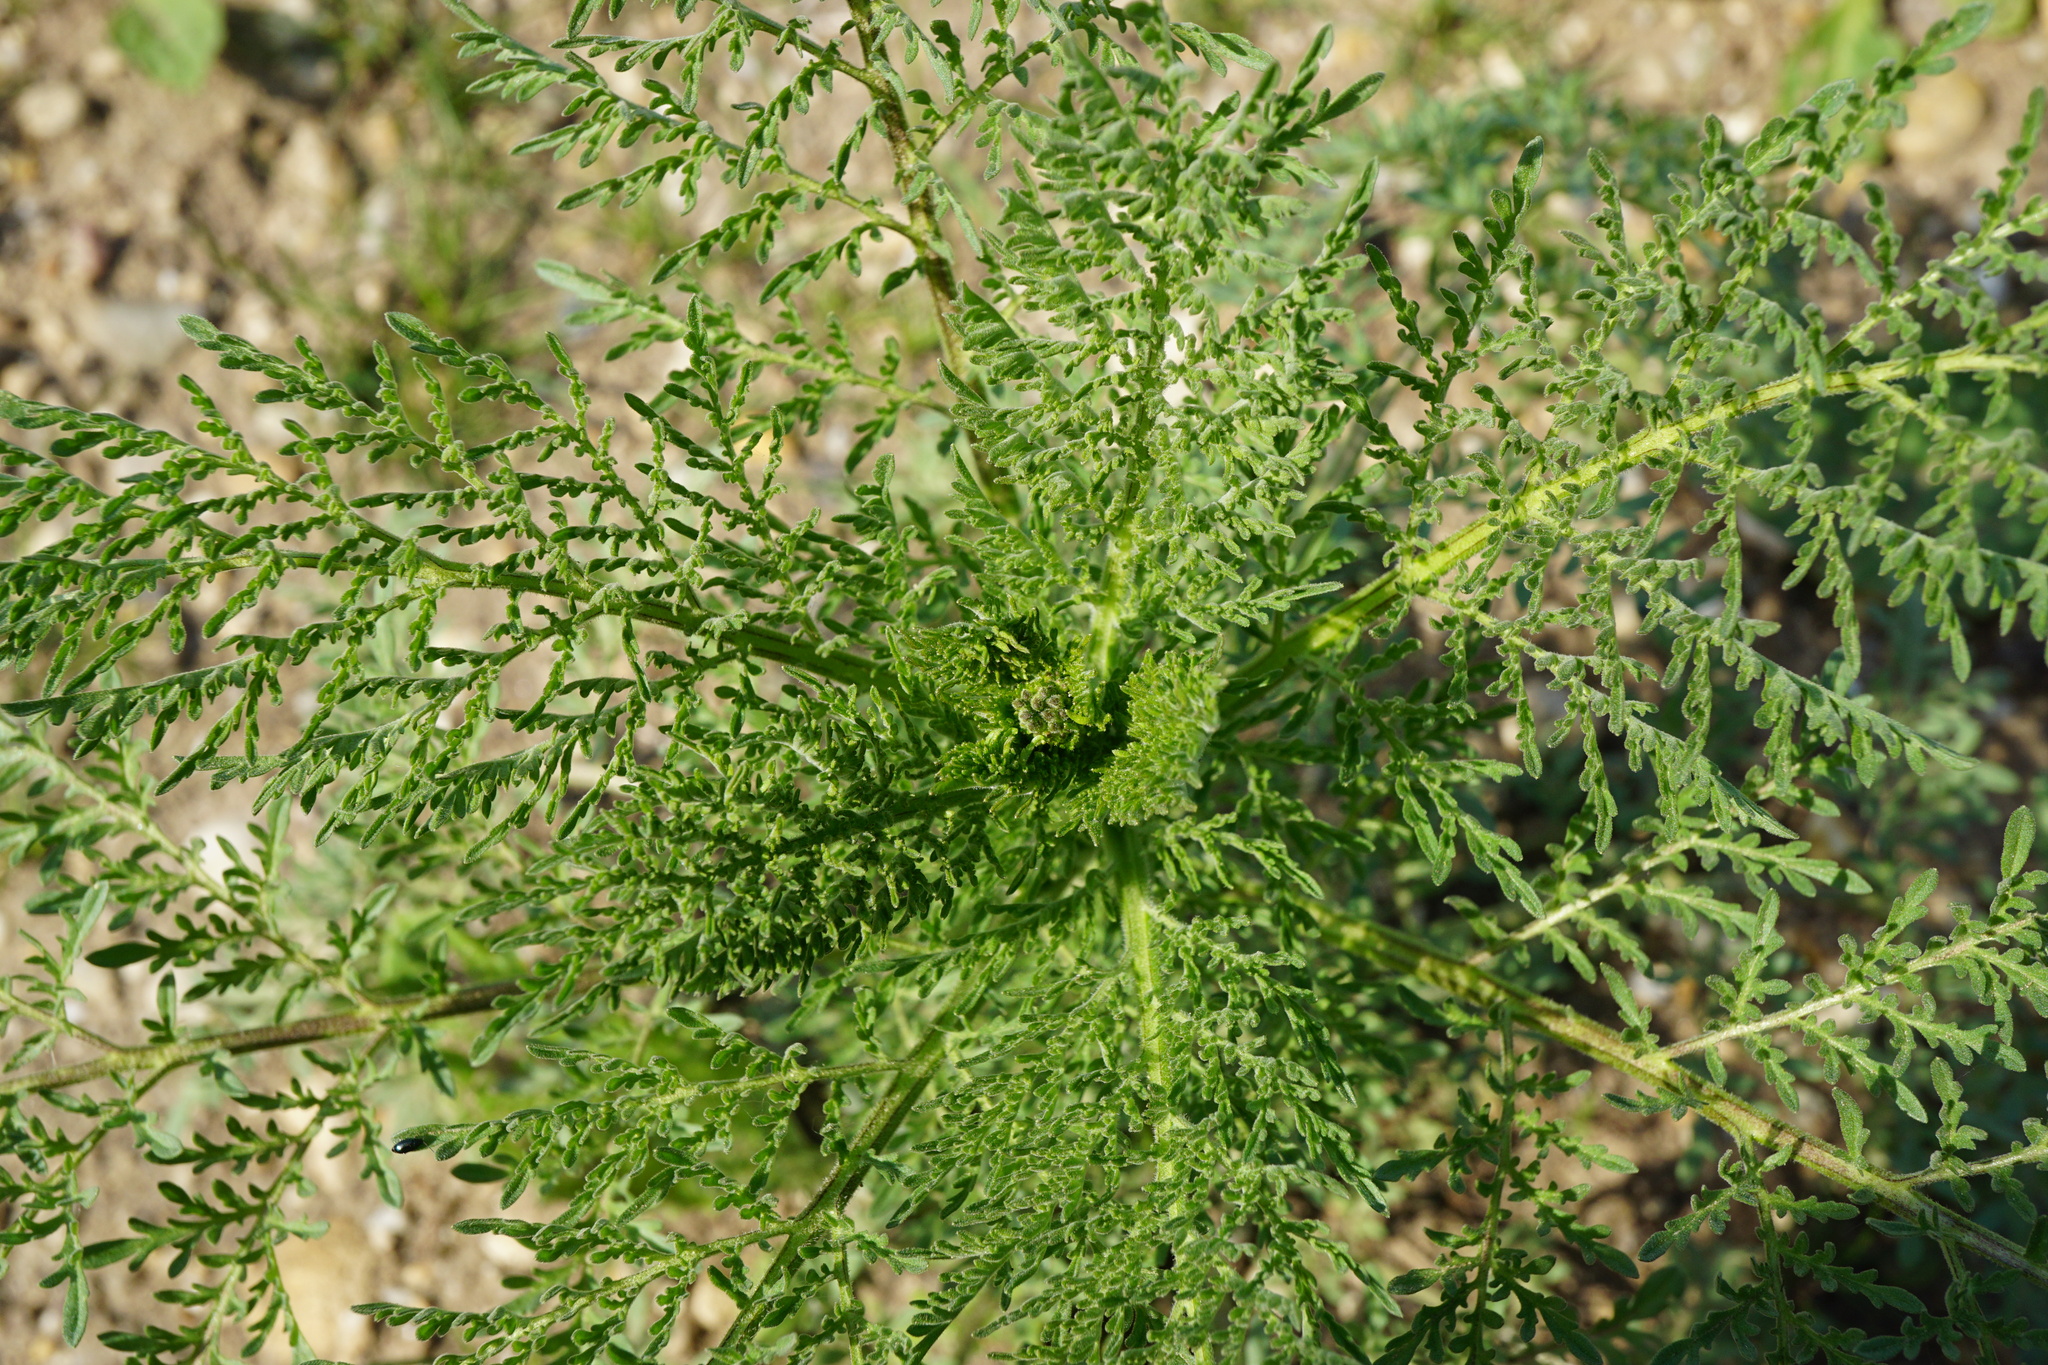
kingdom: Plantae
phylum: Tracheophyta
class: Magnoliopsida
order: Brassicales
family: Brassicaceae
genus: Descurainia
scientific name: Descurainia sophia
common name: Flixweed
